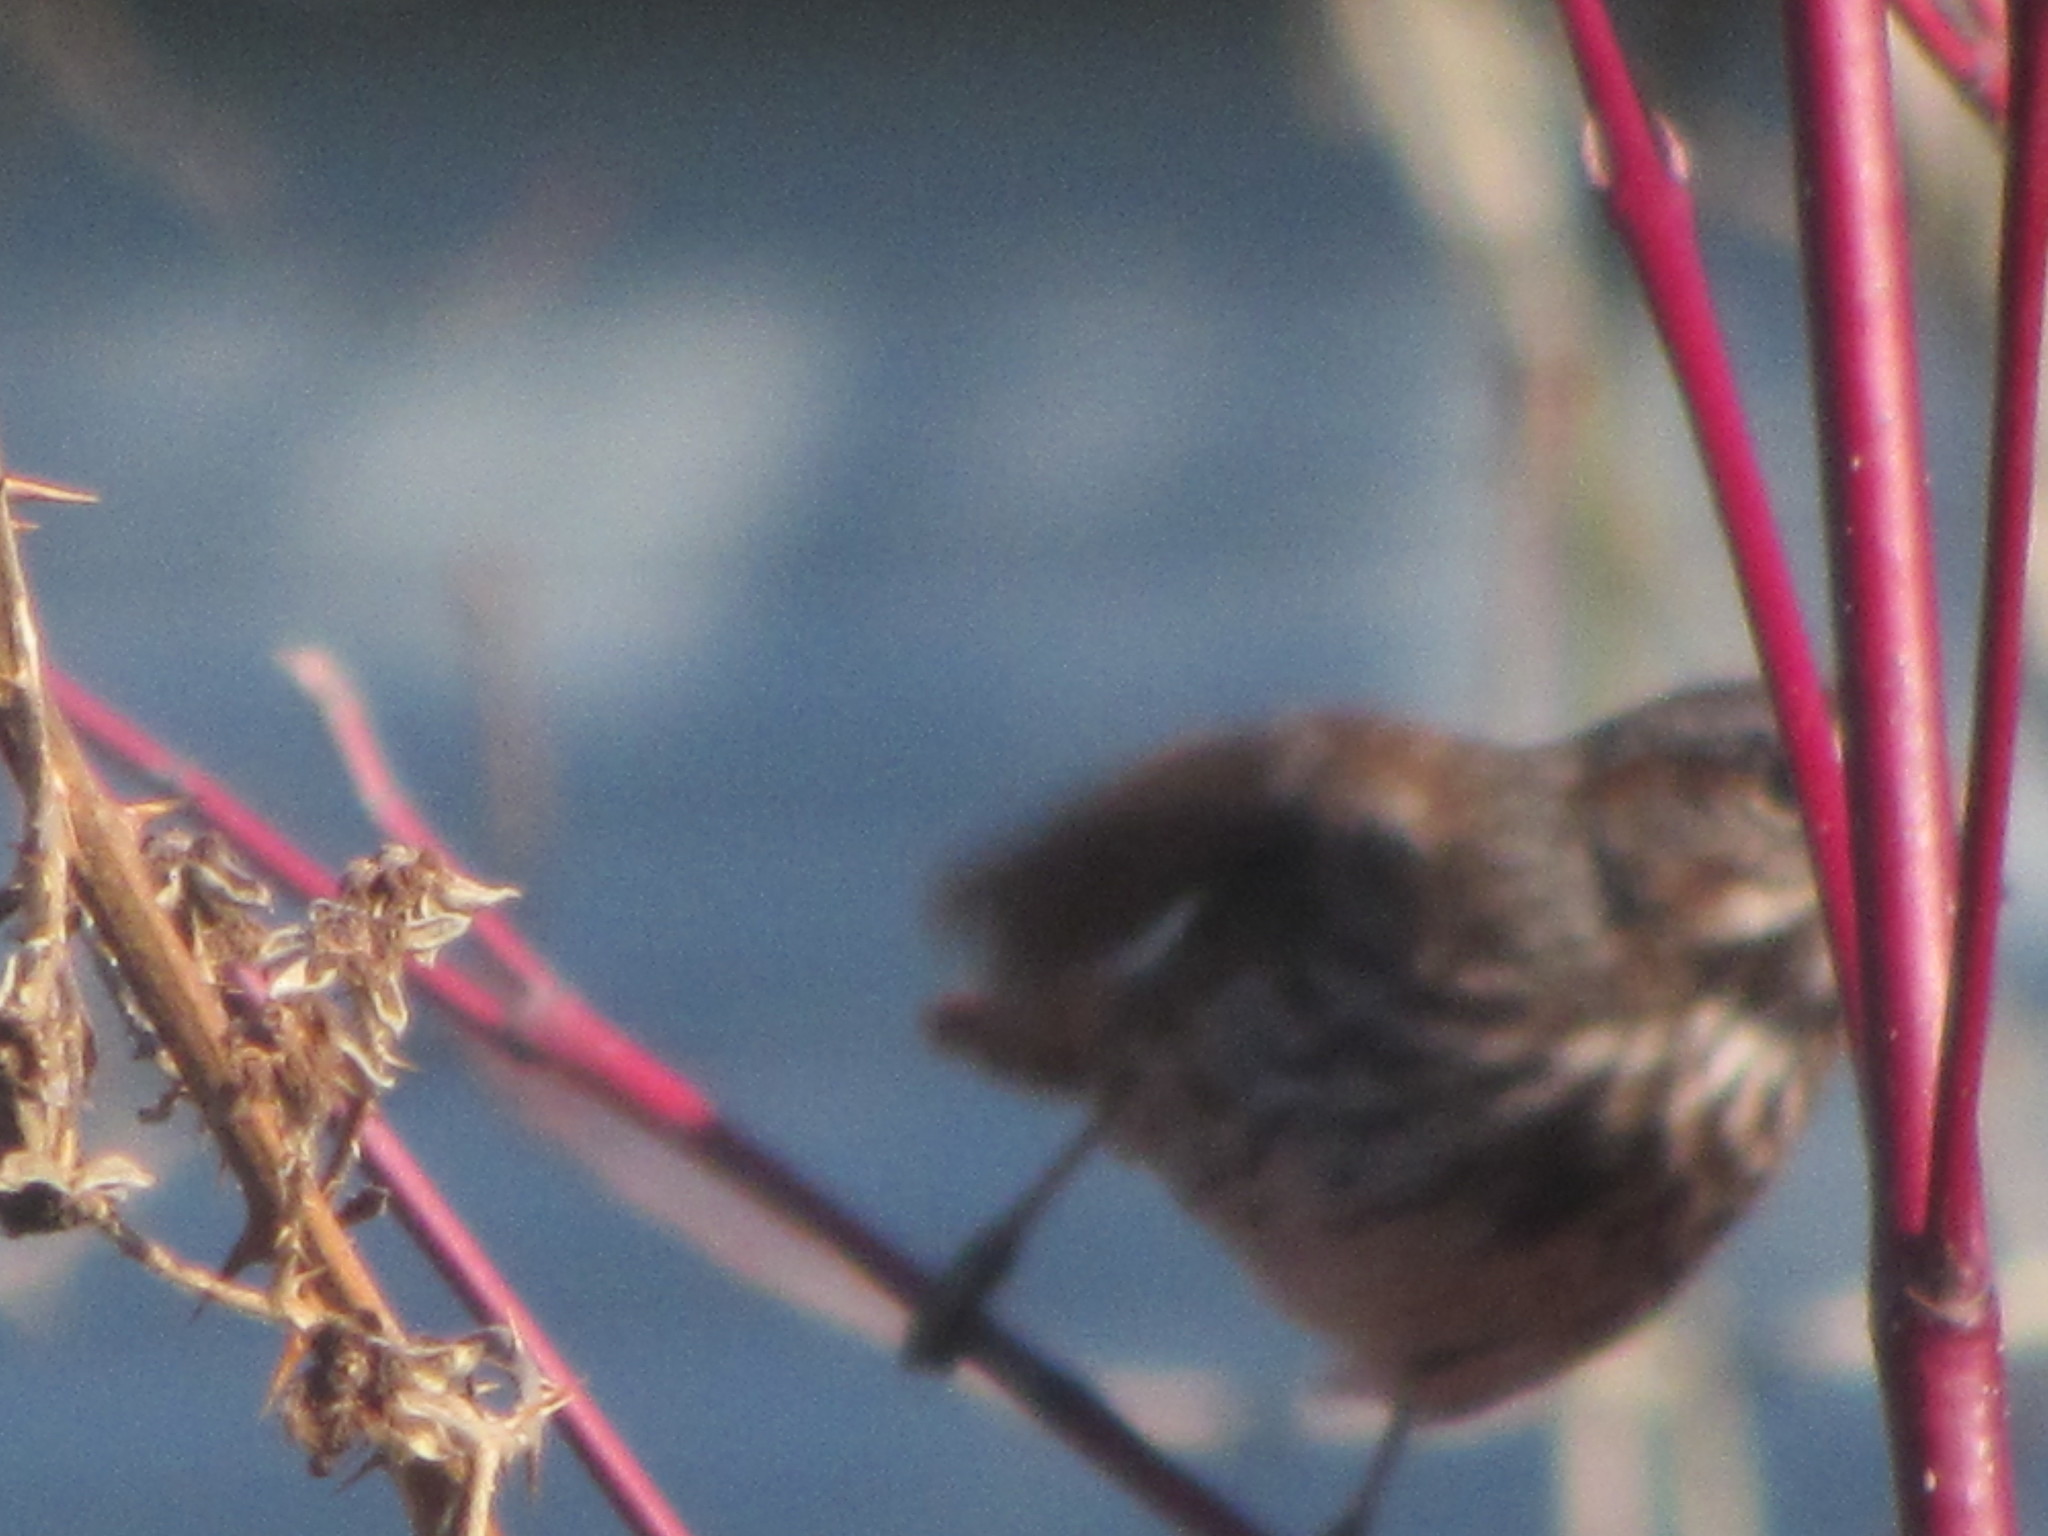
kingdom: Animalia
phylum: Chordata
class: Aves
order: Passeriformes
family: Passerellidae
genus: Melospiza
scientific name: Melospiza melodia
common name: Song sparrow
